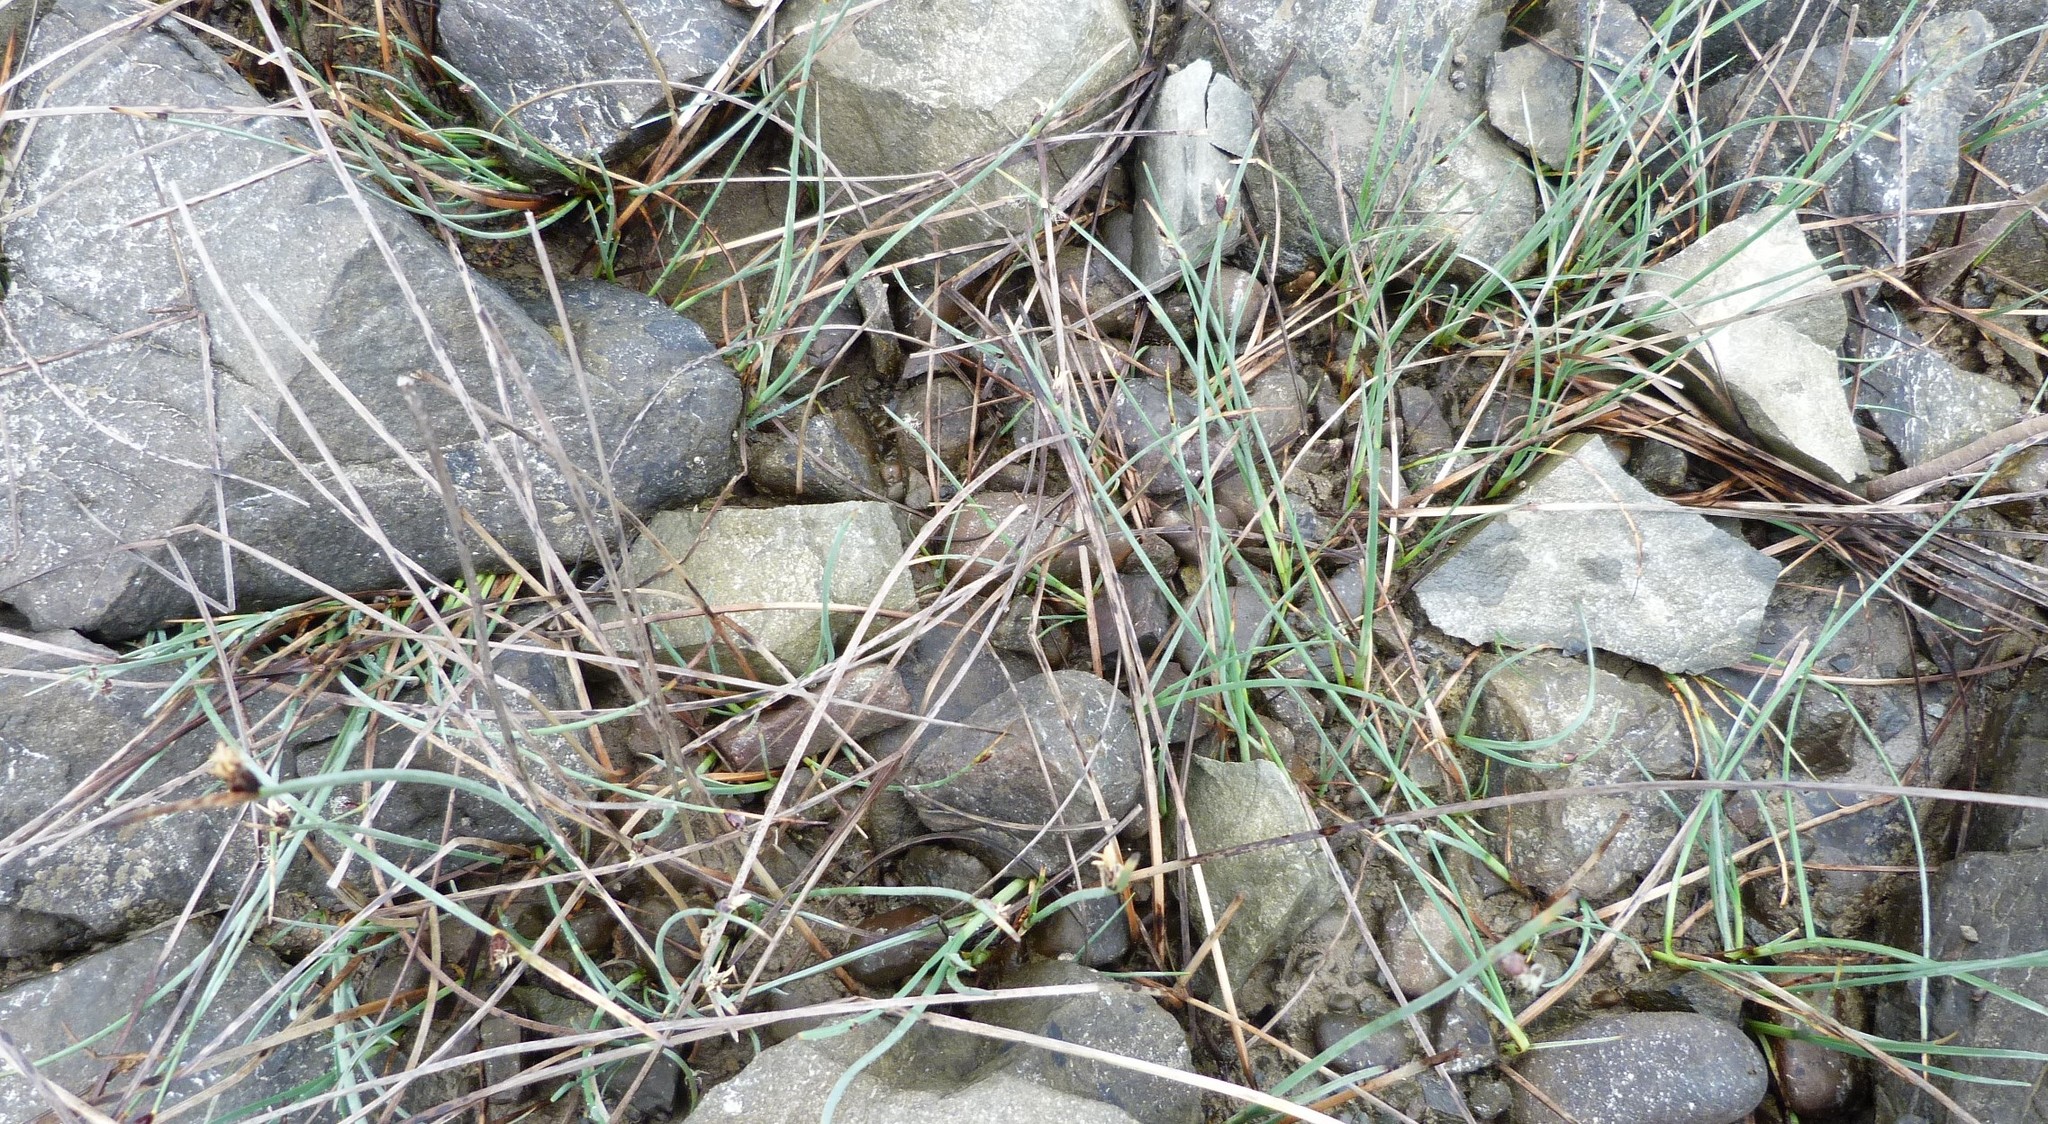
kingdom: Plantae
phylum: Tracheophyta
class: Liliopsida
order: Poales
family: Cyperaceae
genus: Schoenoplectus
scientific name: Schoenoplectus pungens
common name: Sharp club-rush
